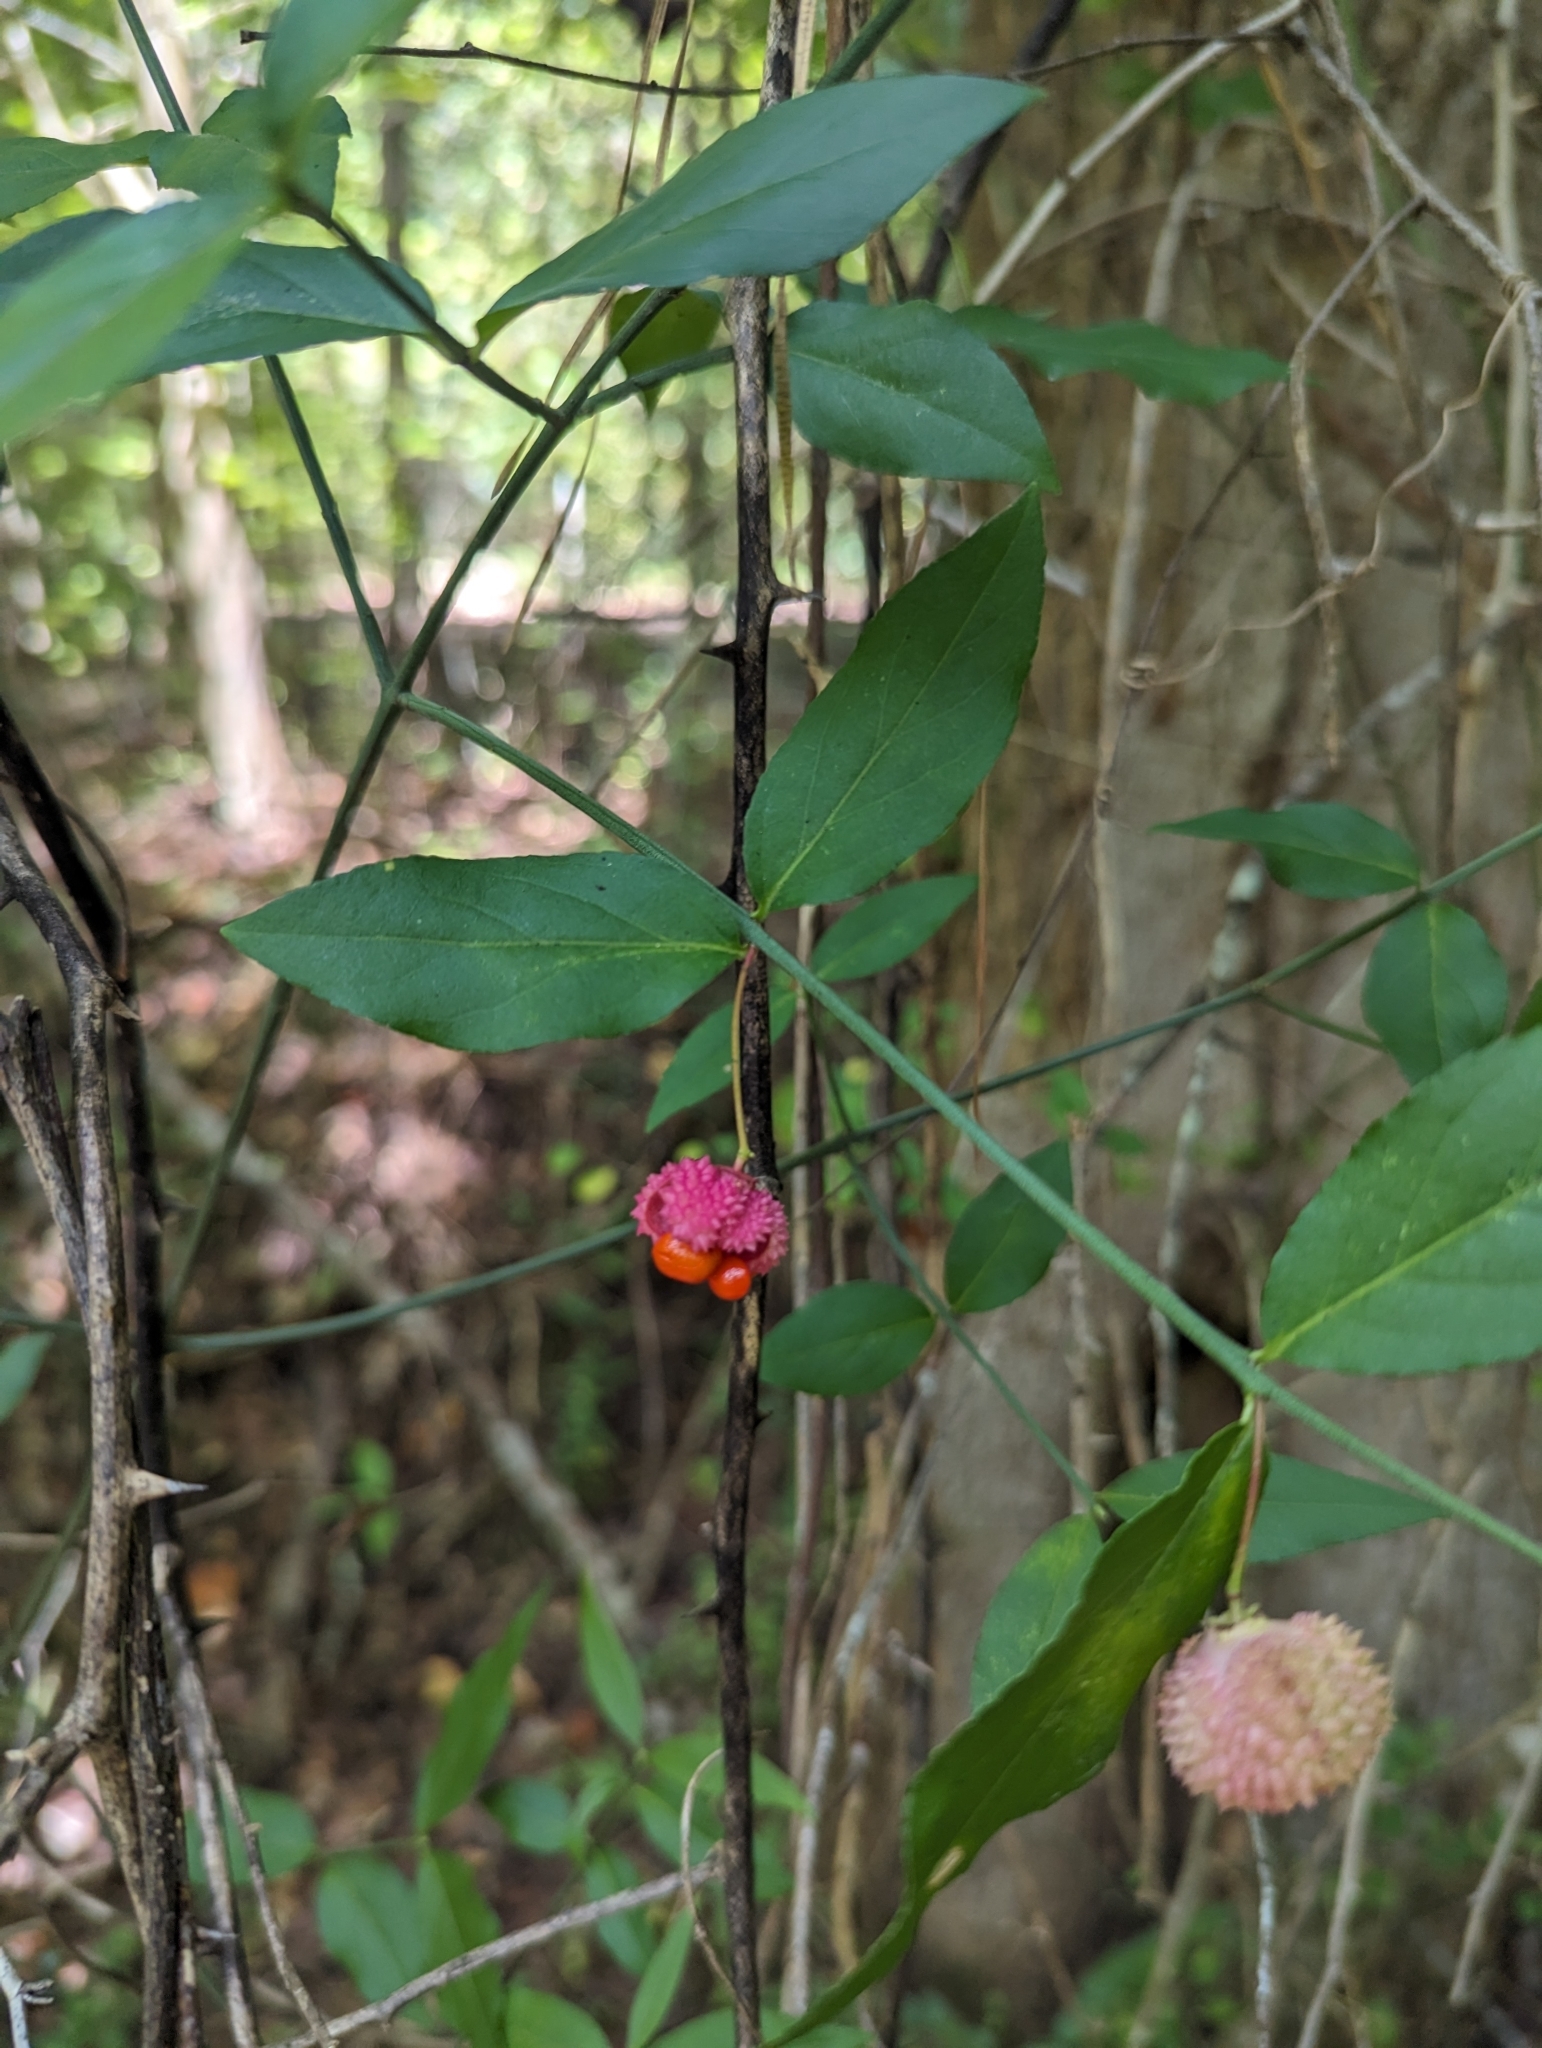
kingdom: Plantae
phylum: Tracheophyta
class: Magnoliopsida
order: Celastrales
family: Celastraceae
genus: Euonymus
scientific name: Euonymus americanus
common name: Bursting-heart
